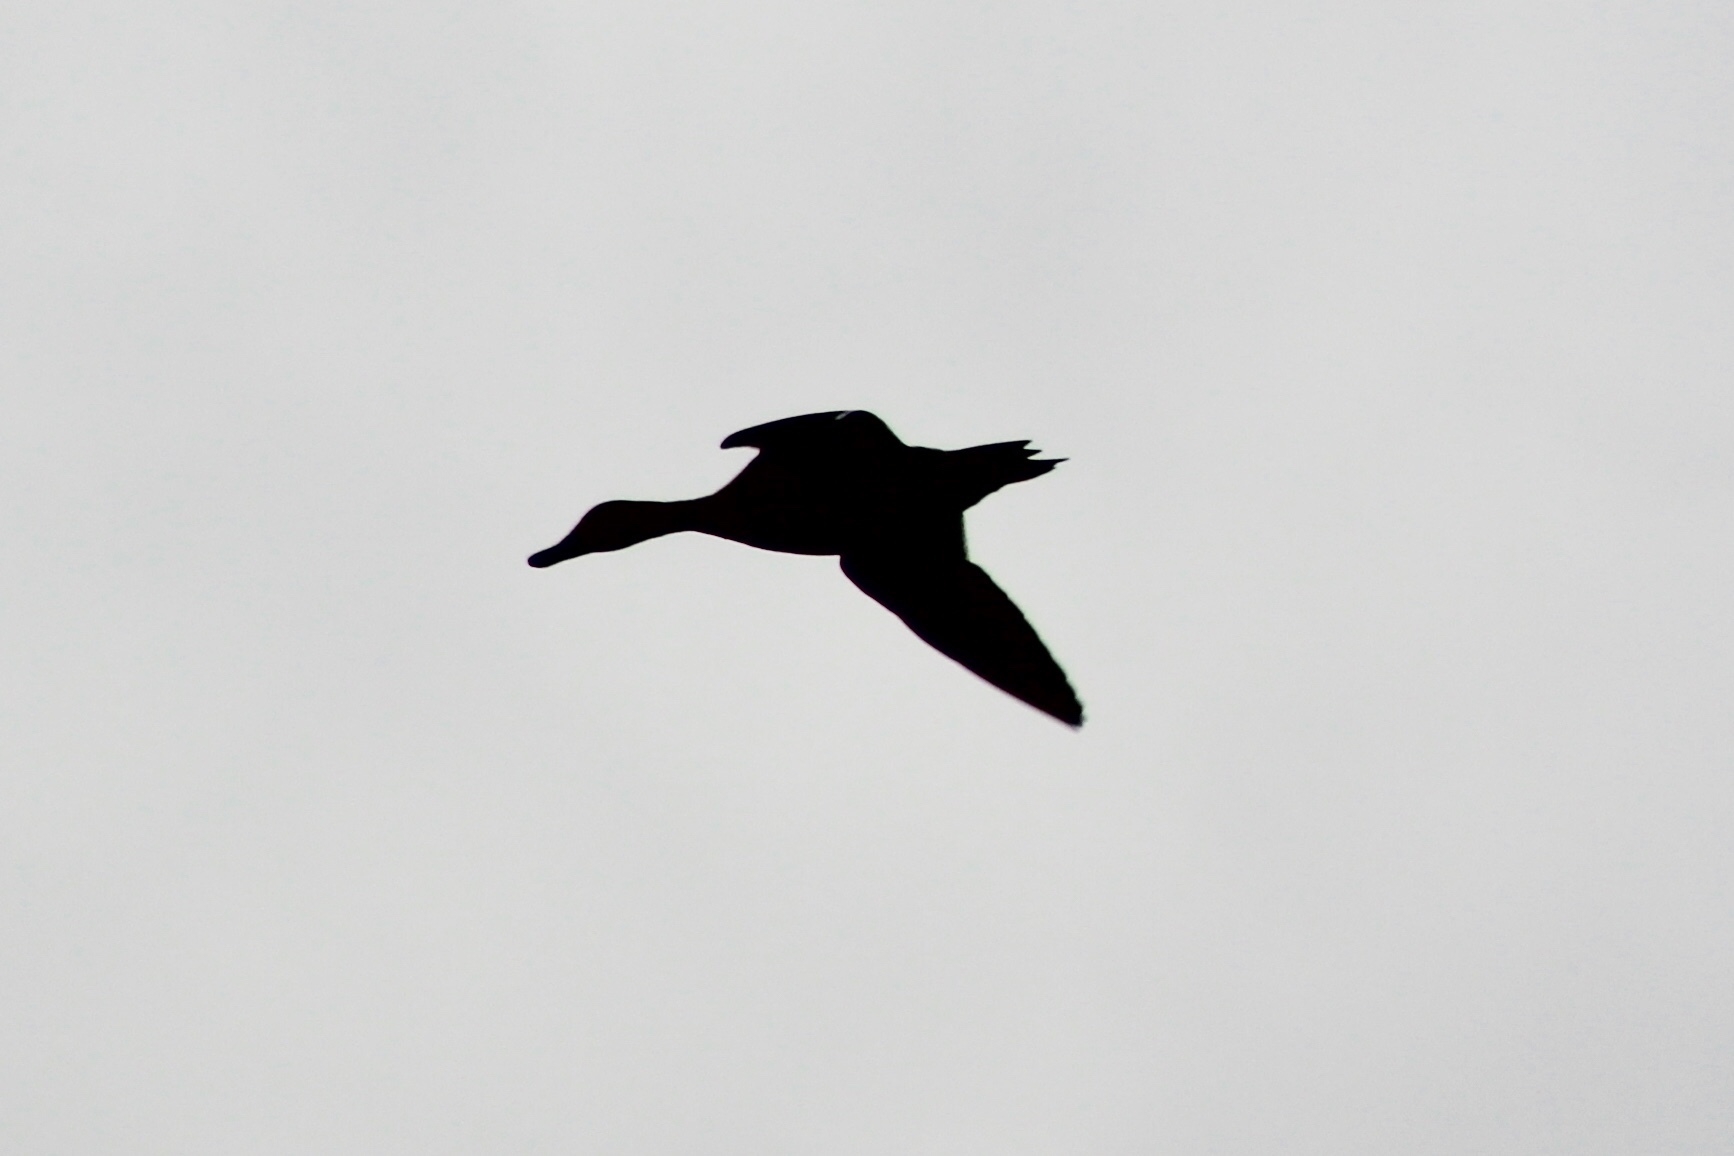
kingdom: Animalia
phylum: Chordata
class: Aves
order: Anseriformes
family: Anatidae
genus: Anas
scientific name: Anas platyrhynchos
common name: Mallard
